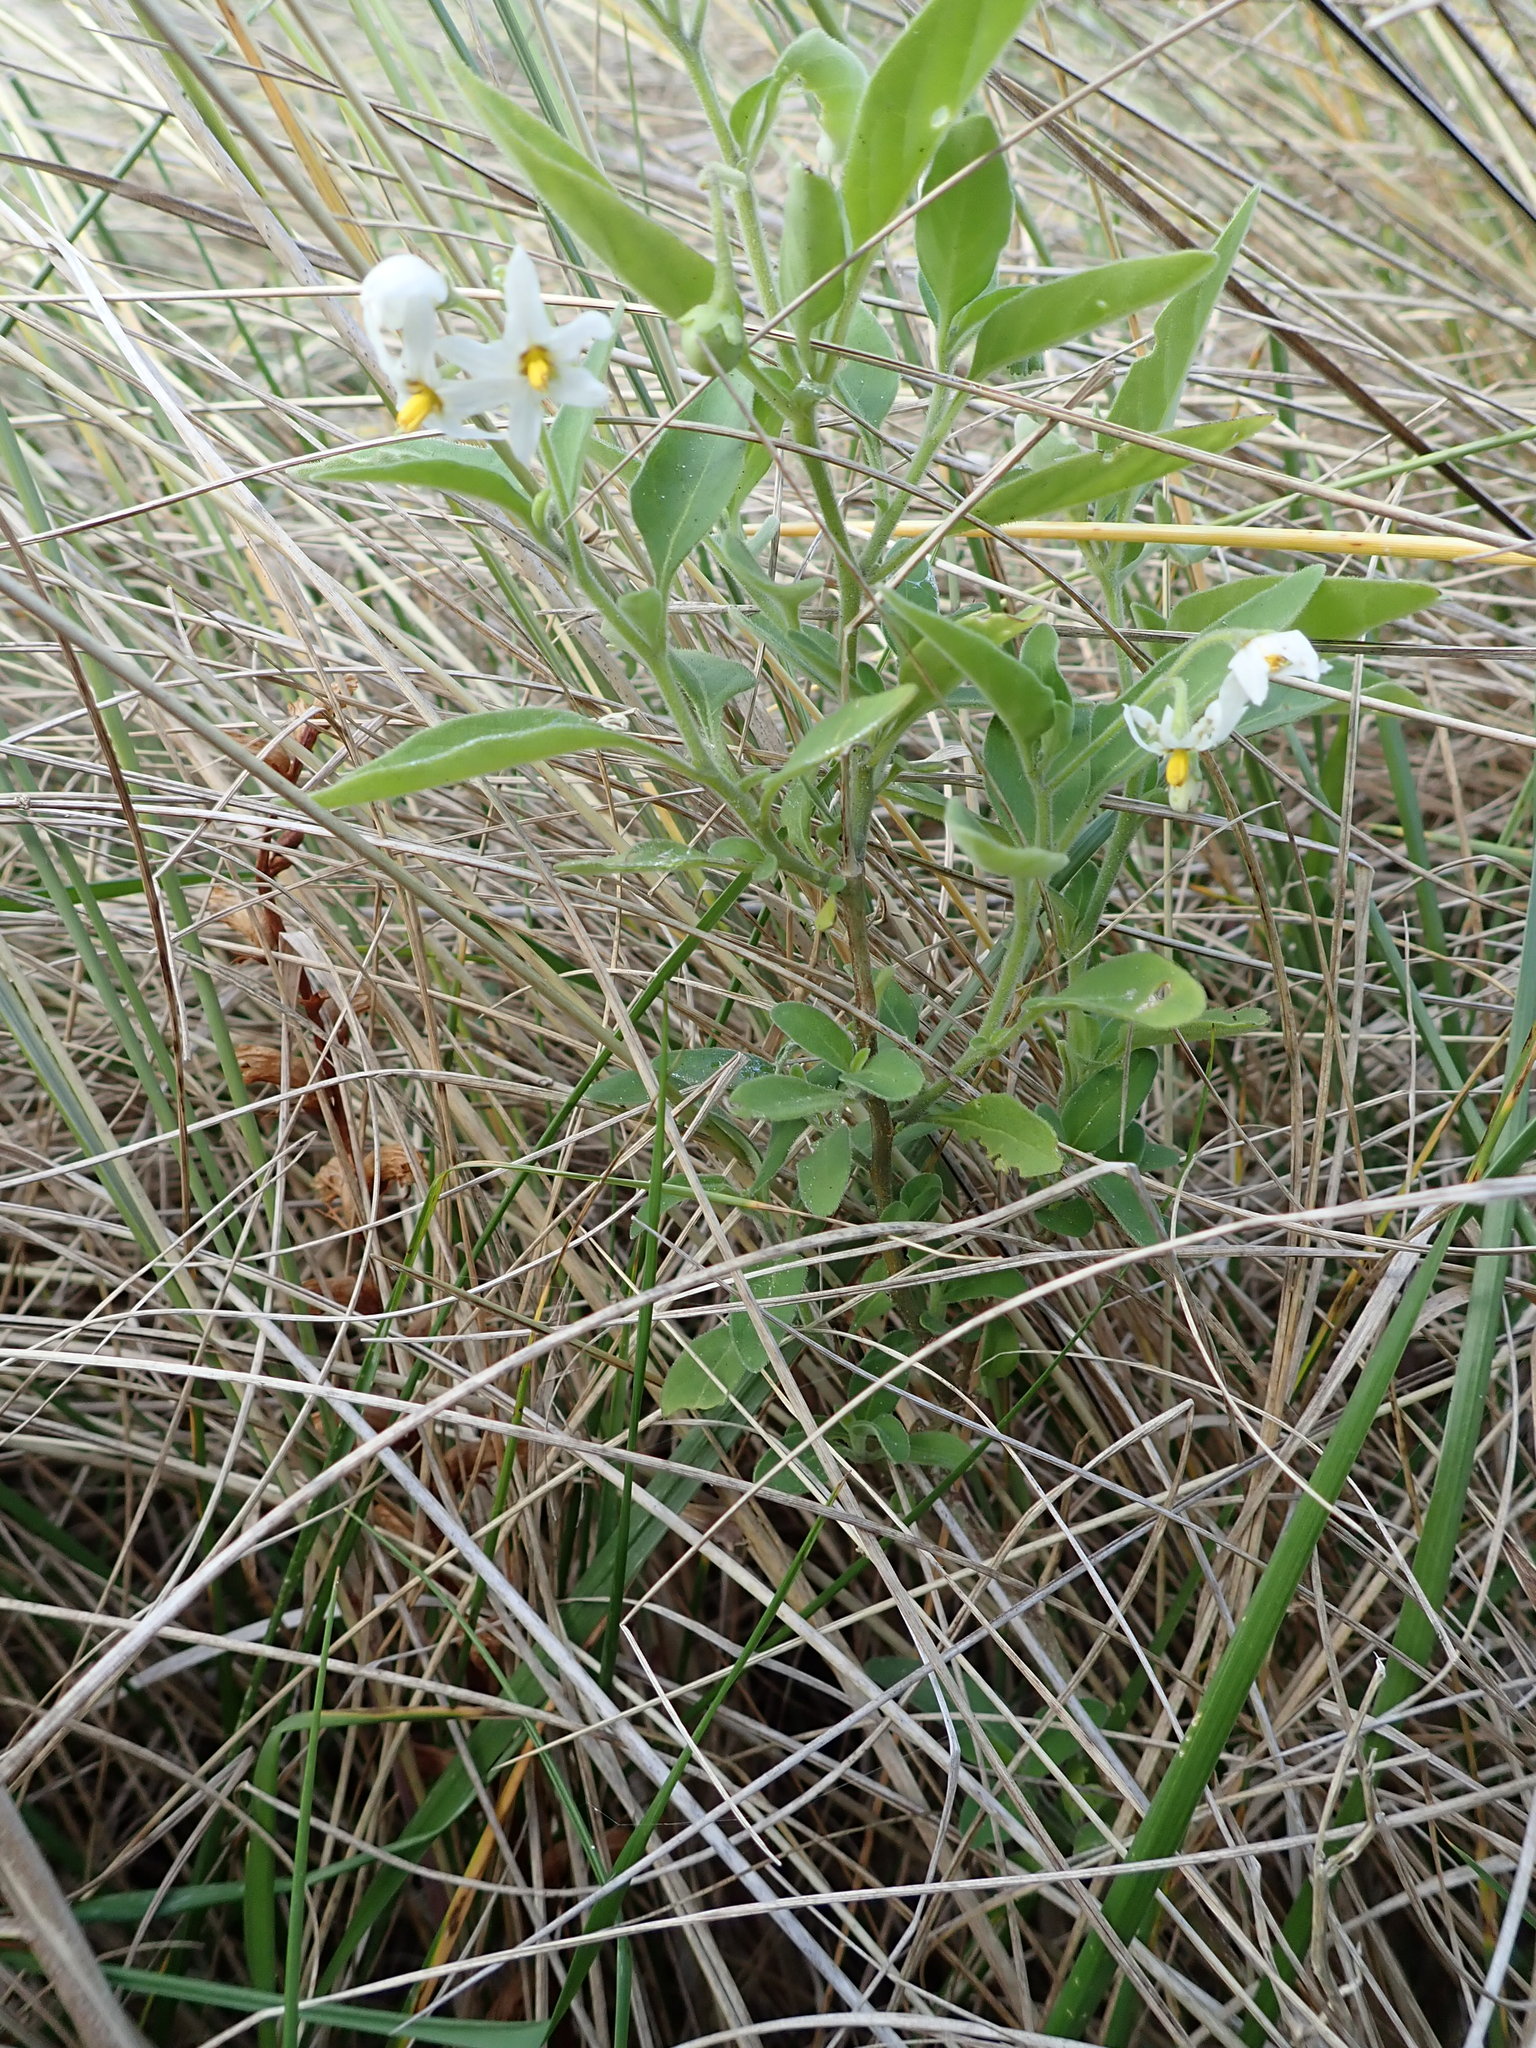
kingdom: Plantae
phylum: Tracheophyta
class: Magnoliopsida
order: Solanales
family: Solanaceae
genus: Solanum
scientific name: Solanum chenopodioides
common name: Tall nightshade
